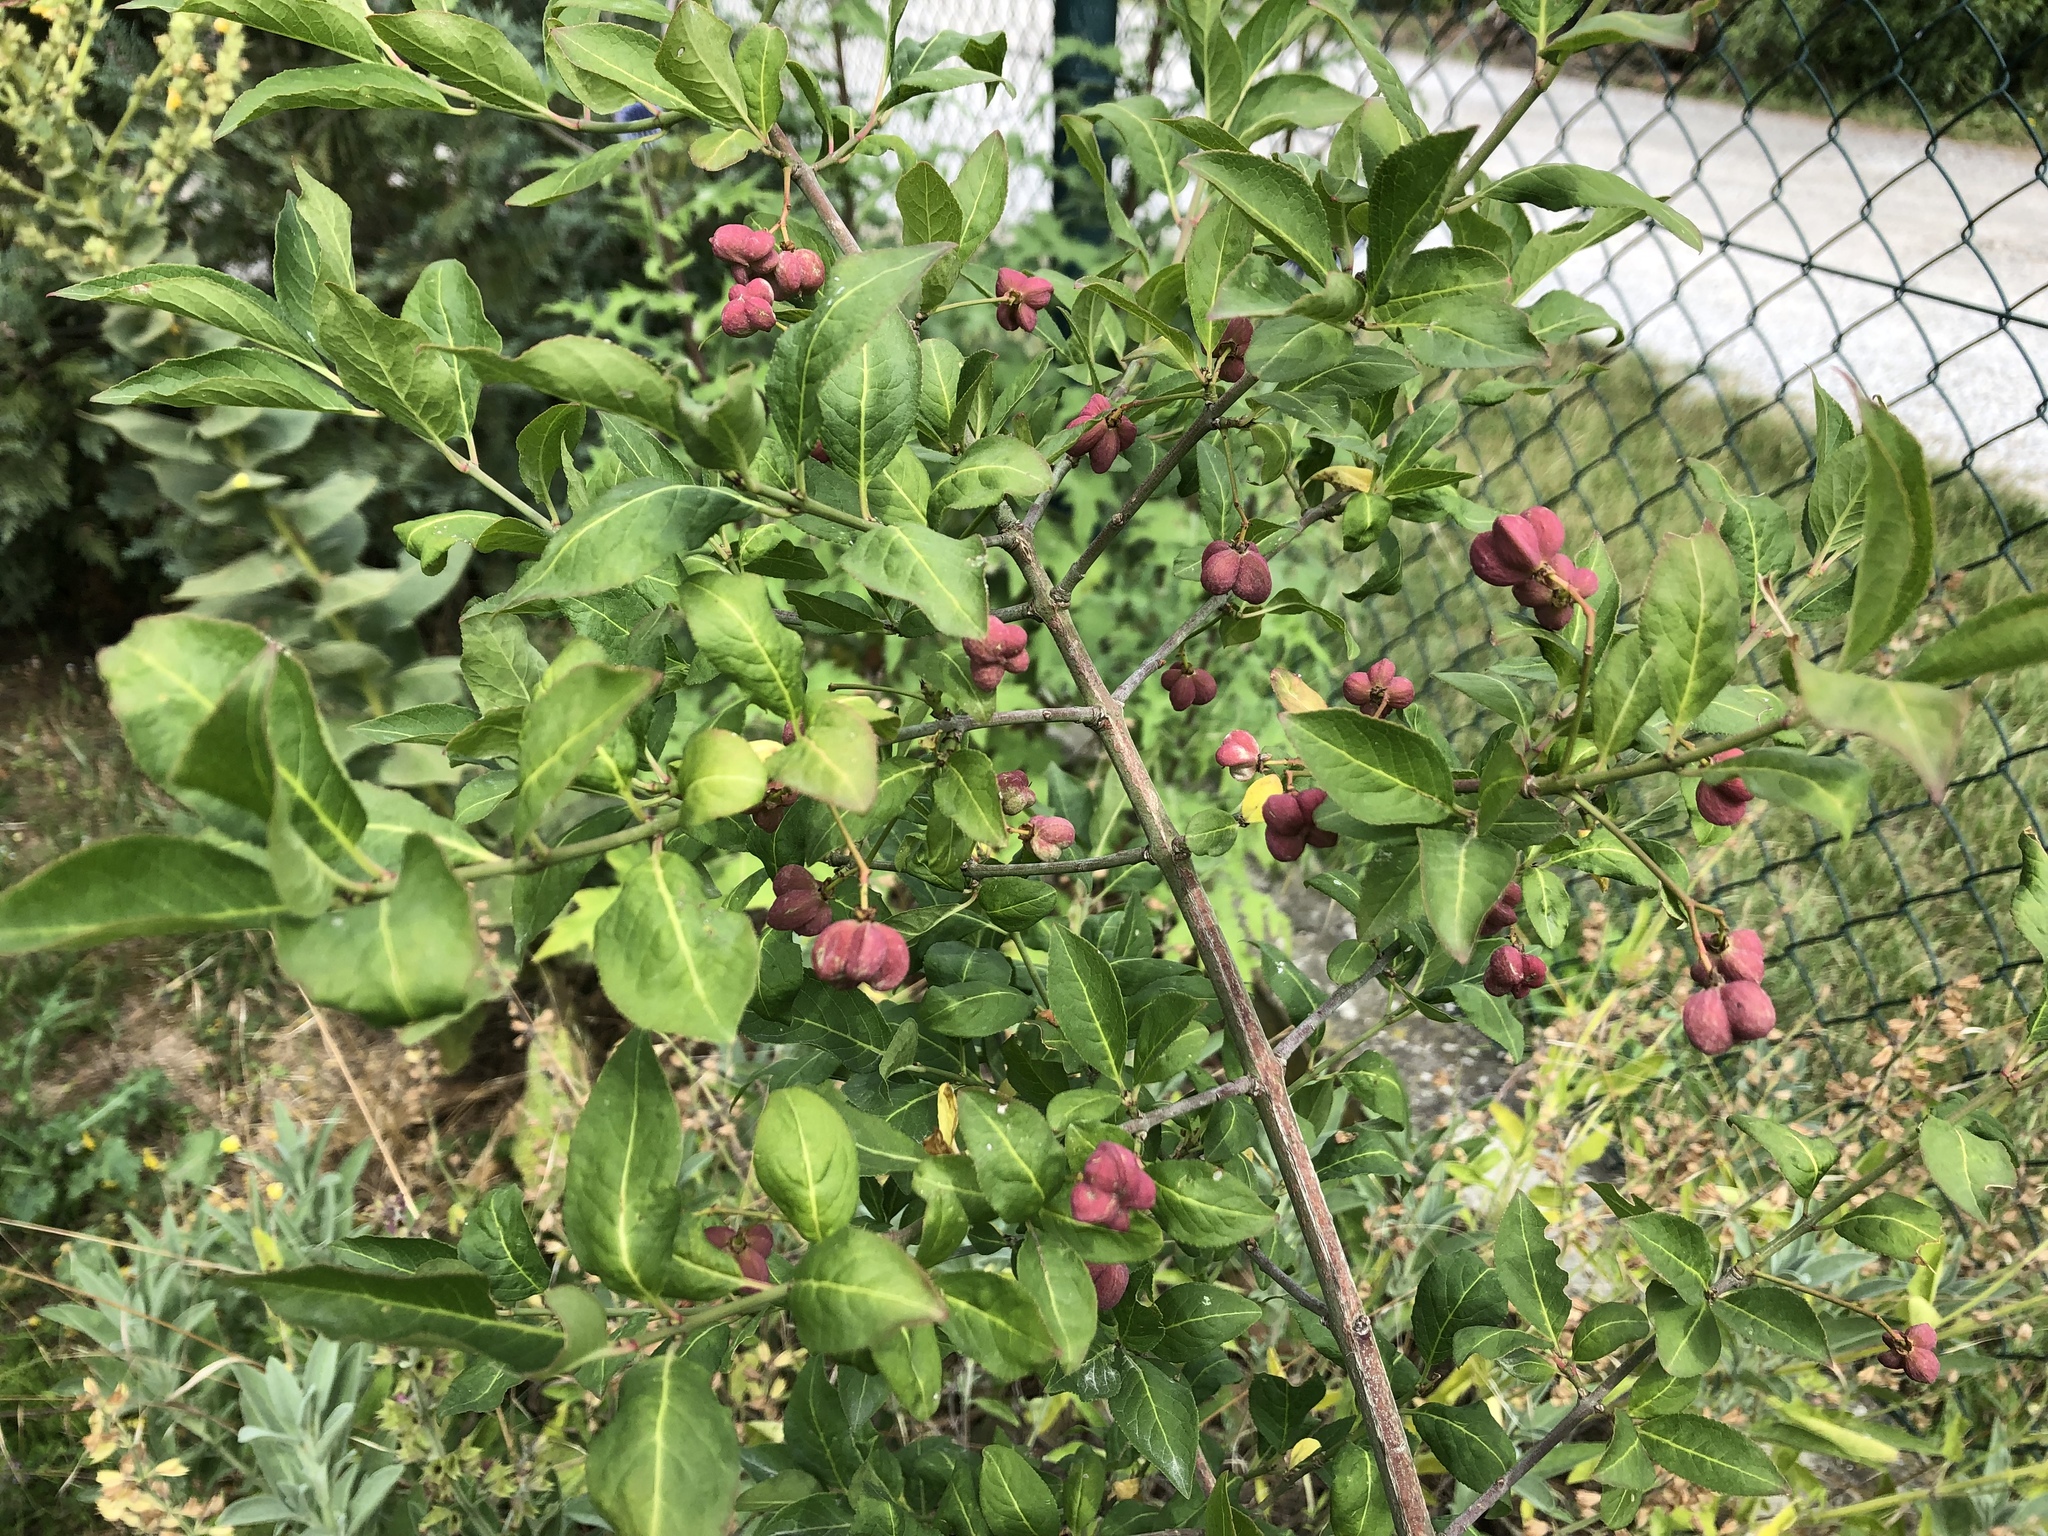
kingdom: Plantae
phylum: Tracheophyta
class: Magnoliopsida
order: Celastrales
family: Celastraceae
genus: Euonymus
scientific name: Euonymus europaeus
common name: Spindle
